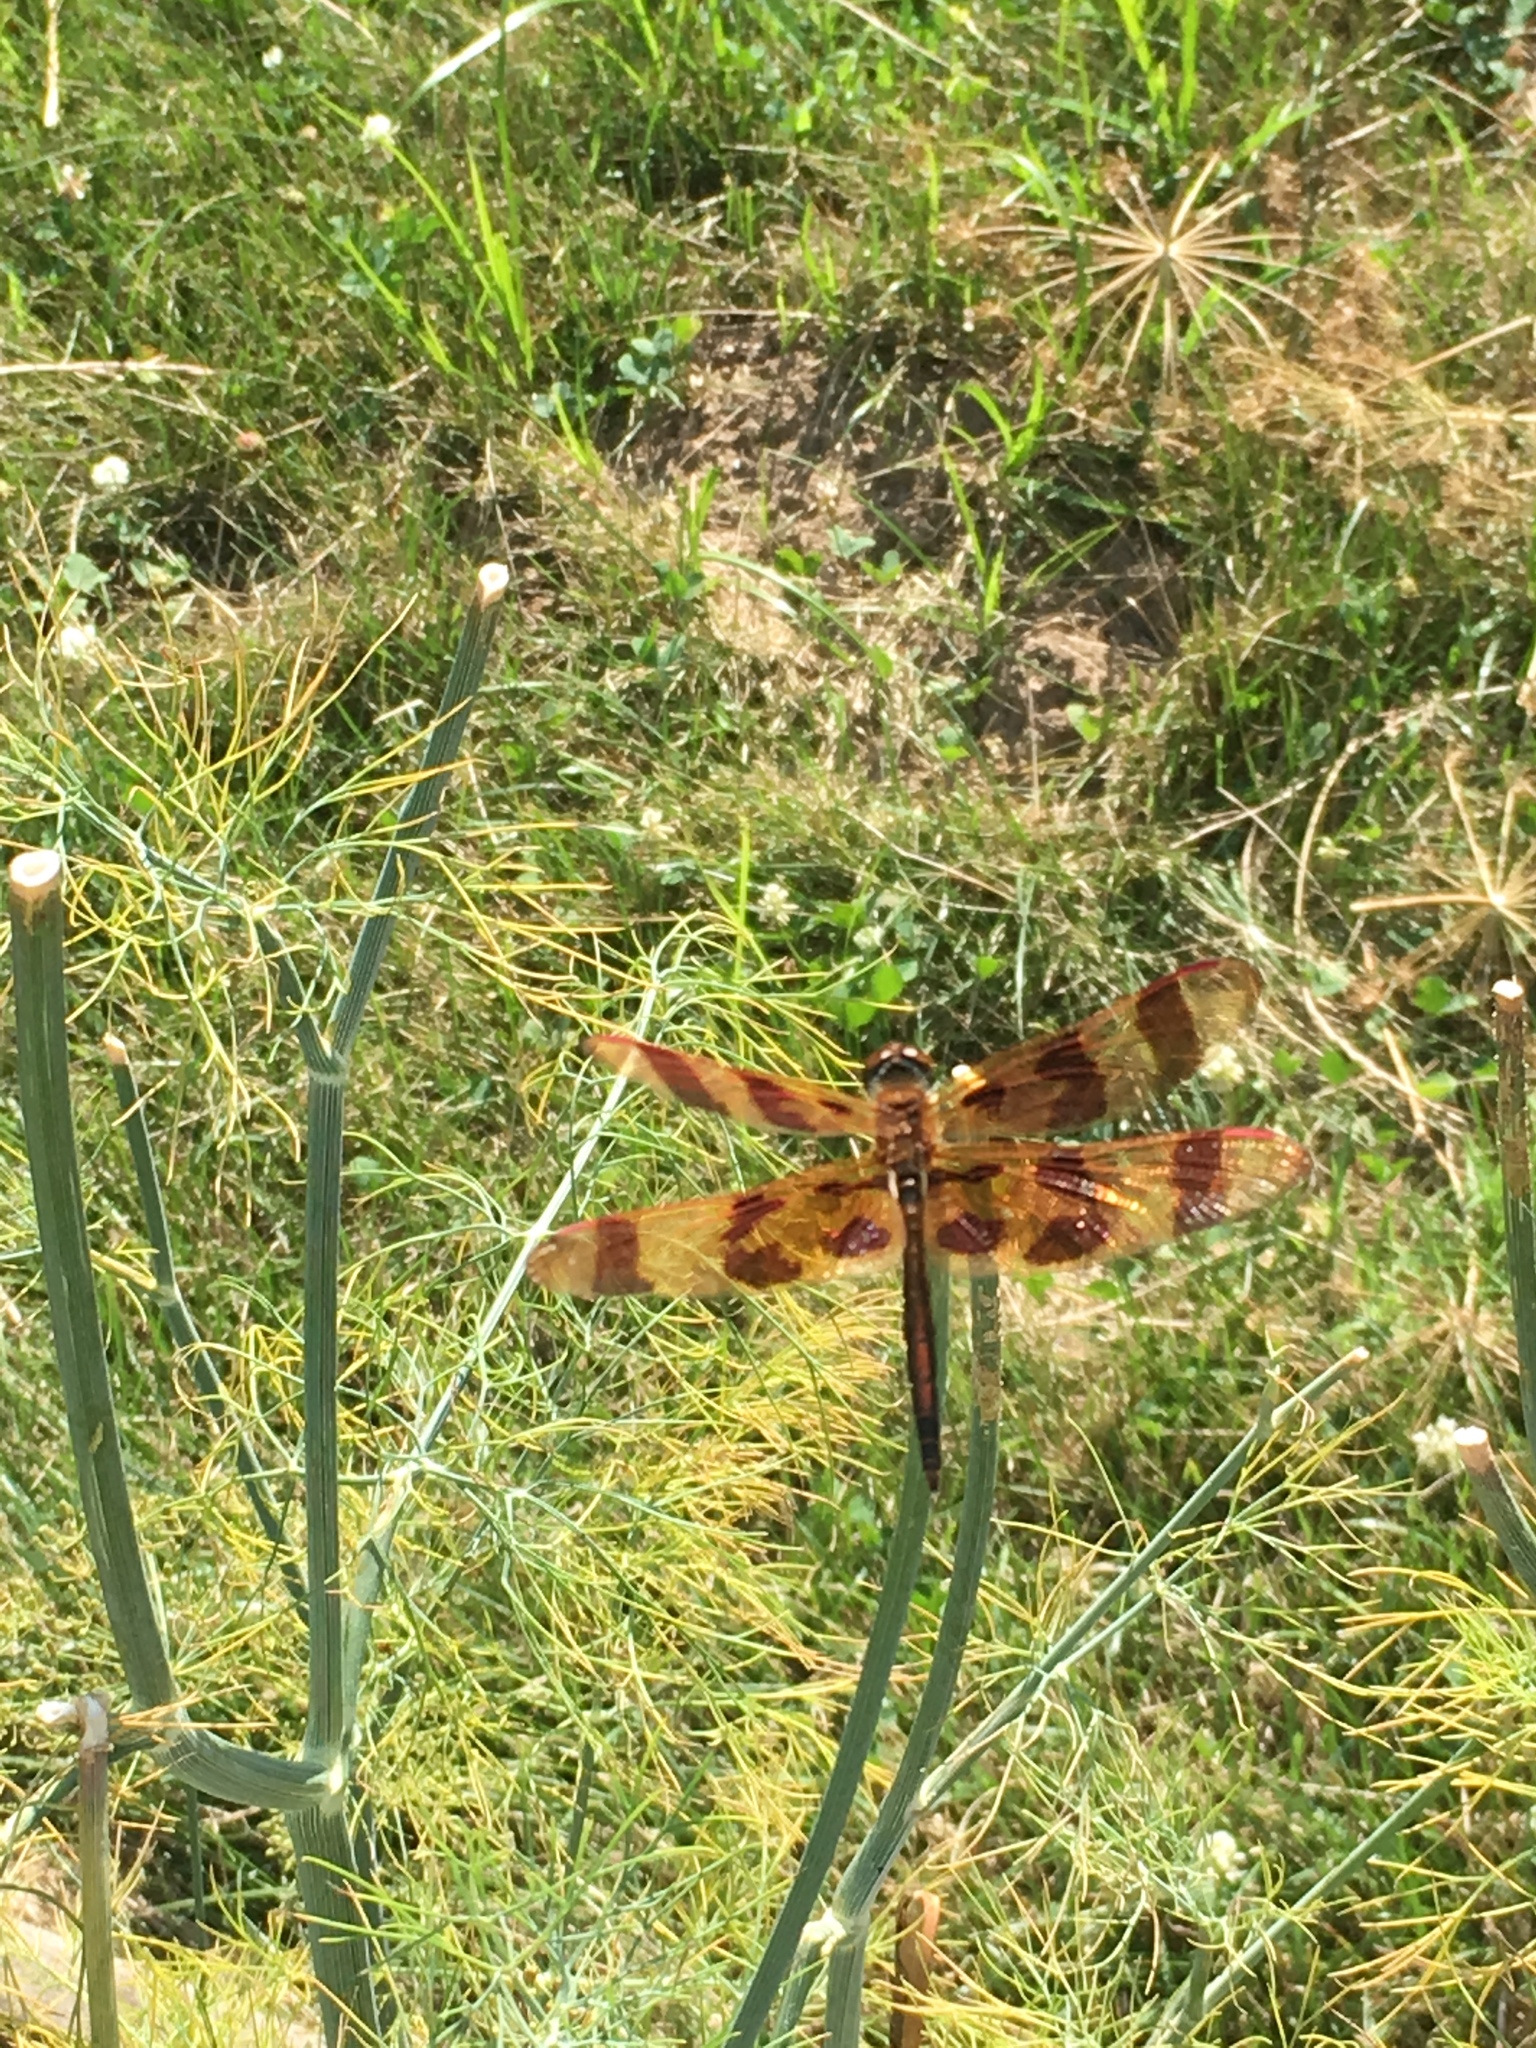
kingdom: Animalia
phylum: Arthropoda
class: Insecta
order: Odonata
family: Libellulidae
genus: Celithemis
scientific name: Celithemis eponina
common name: Halloween pennant
